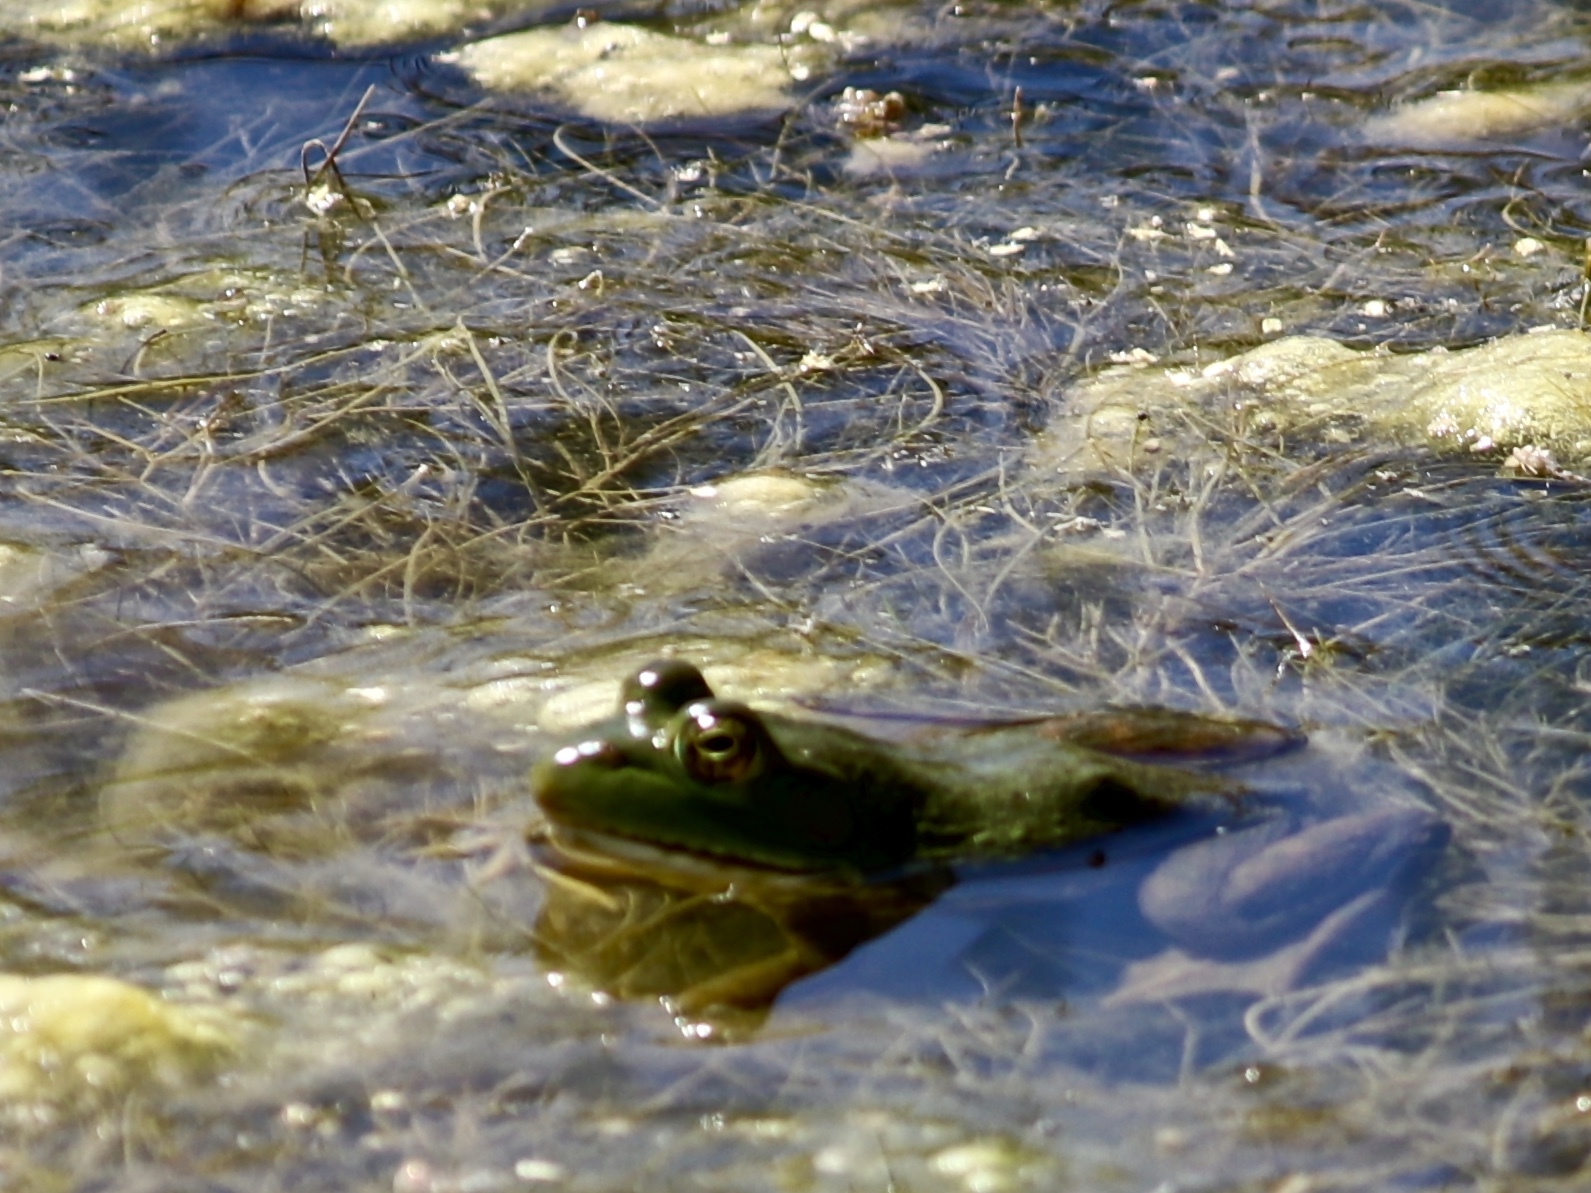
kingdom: Animalia
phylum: Chordata
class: Amphibia
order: Anura
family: Ranidae
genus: Lithobates
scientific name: Lithobates catesbeianus
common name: American bullfrog
